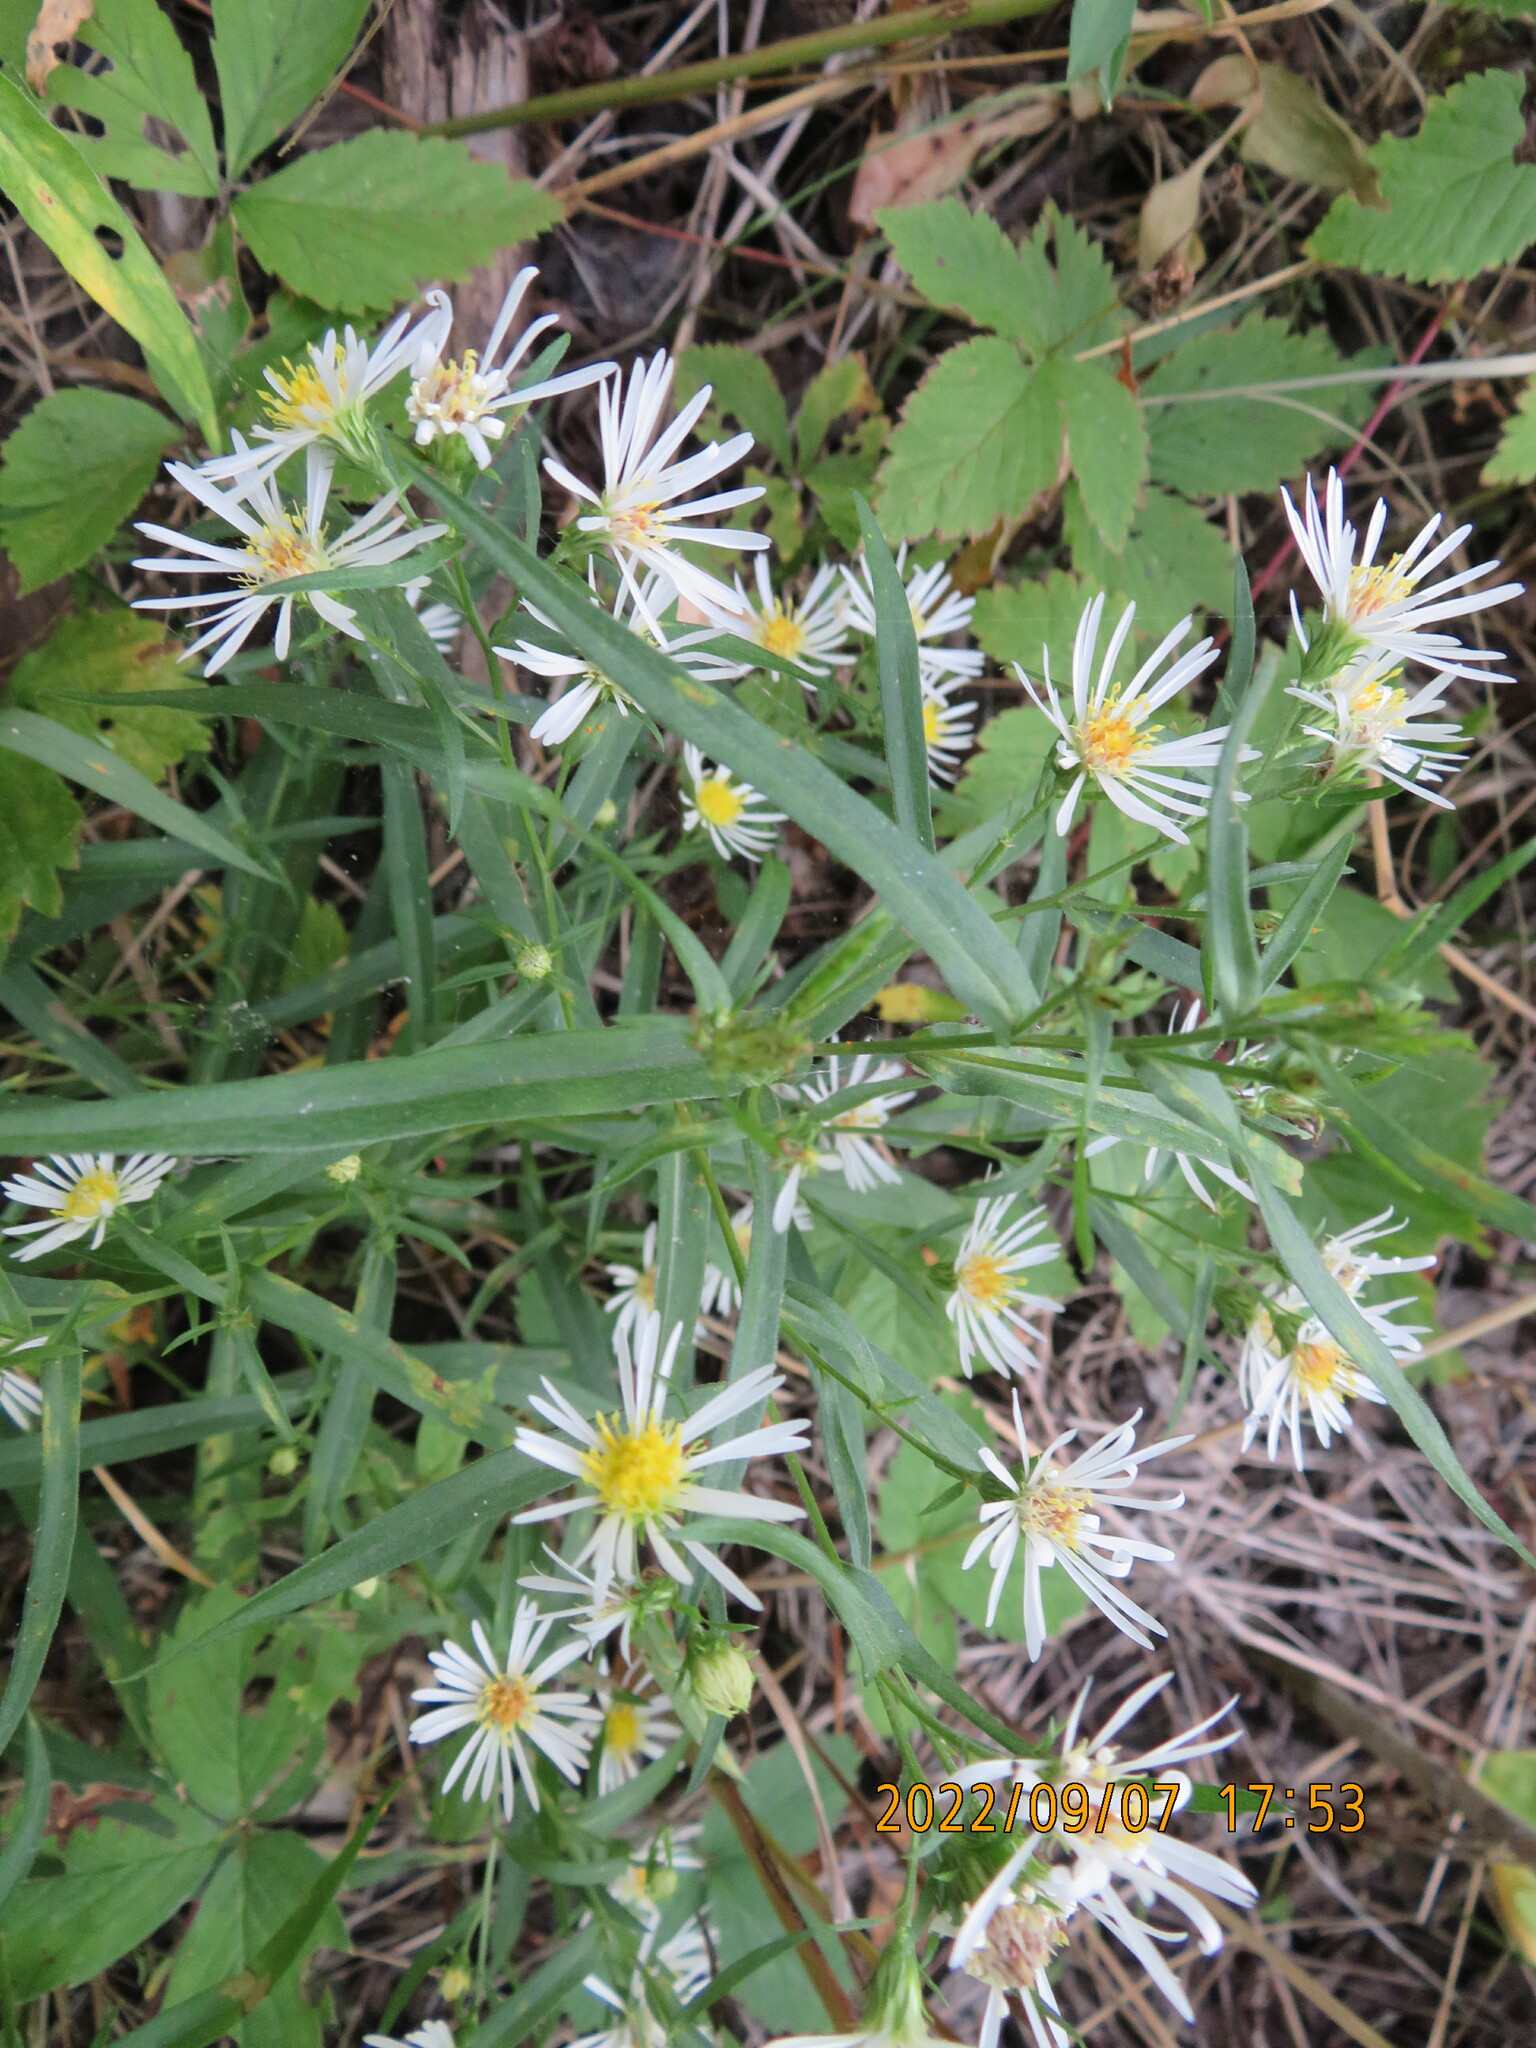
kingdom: Plantae
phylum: Tracheophyta
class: Magnoliopsida
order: Asterales
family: Asteraceae
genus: Symphyotrichum
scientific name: Symphyotrichum lanceolatum
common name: Panicled aster
